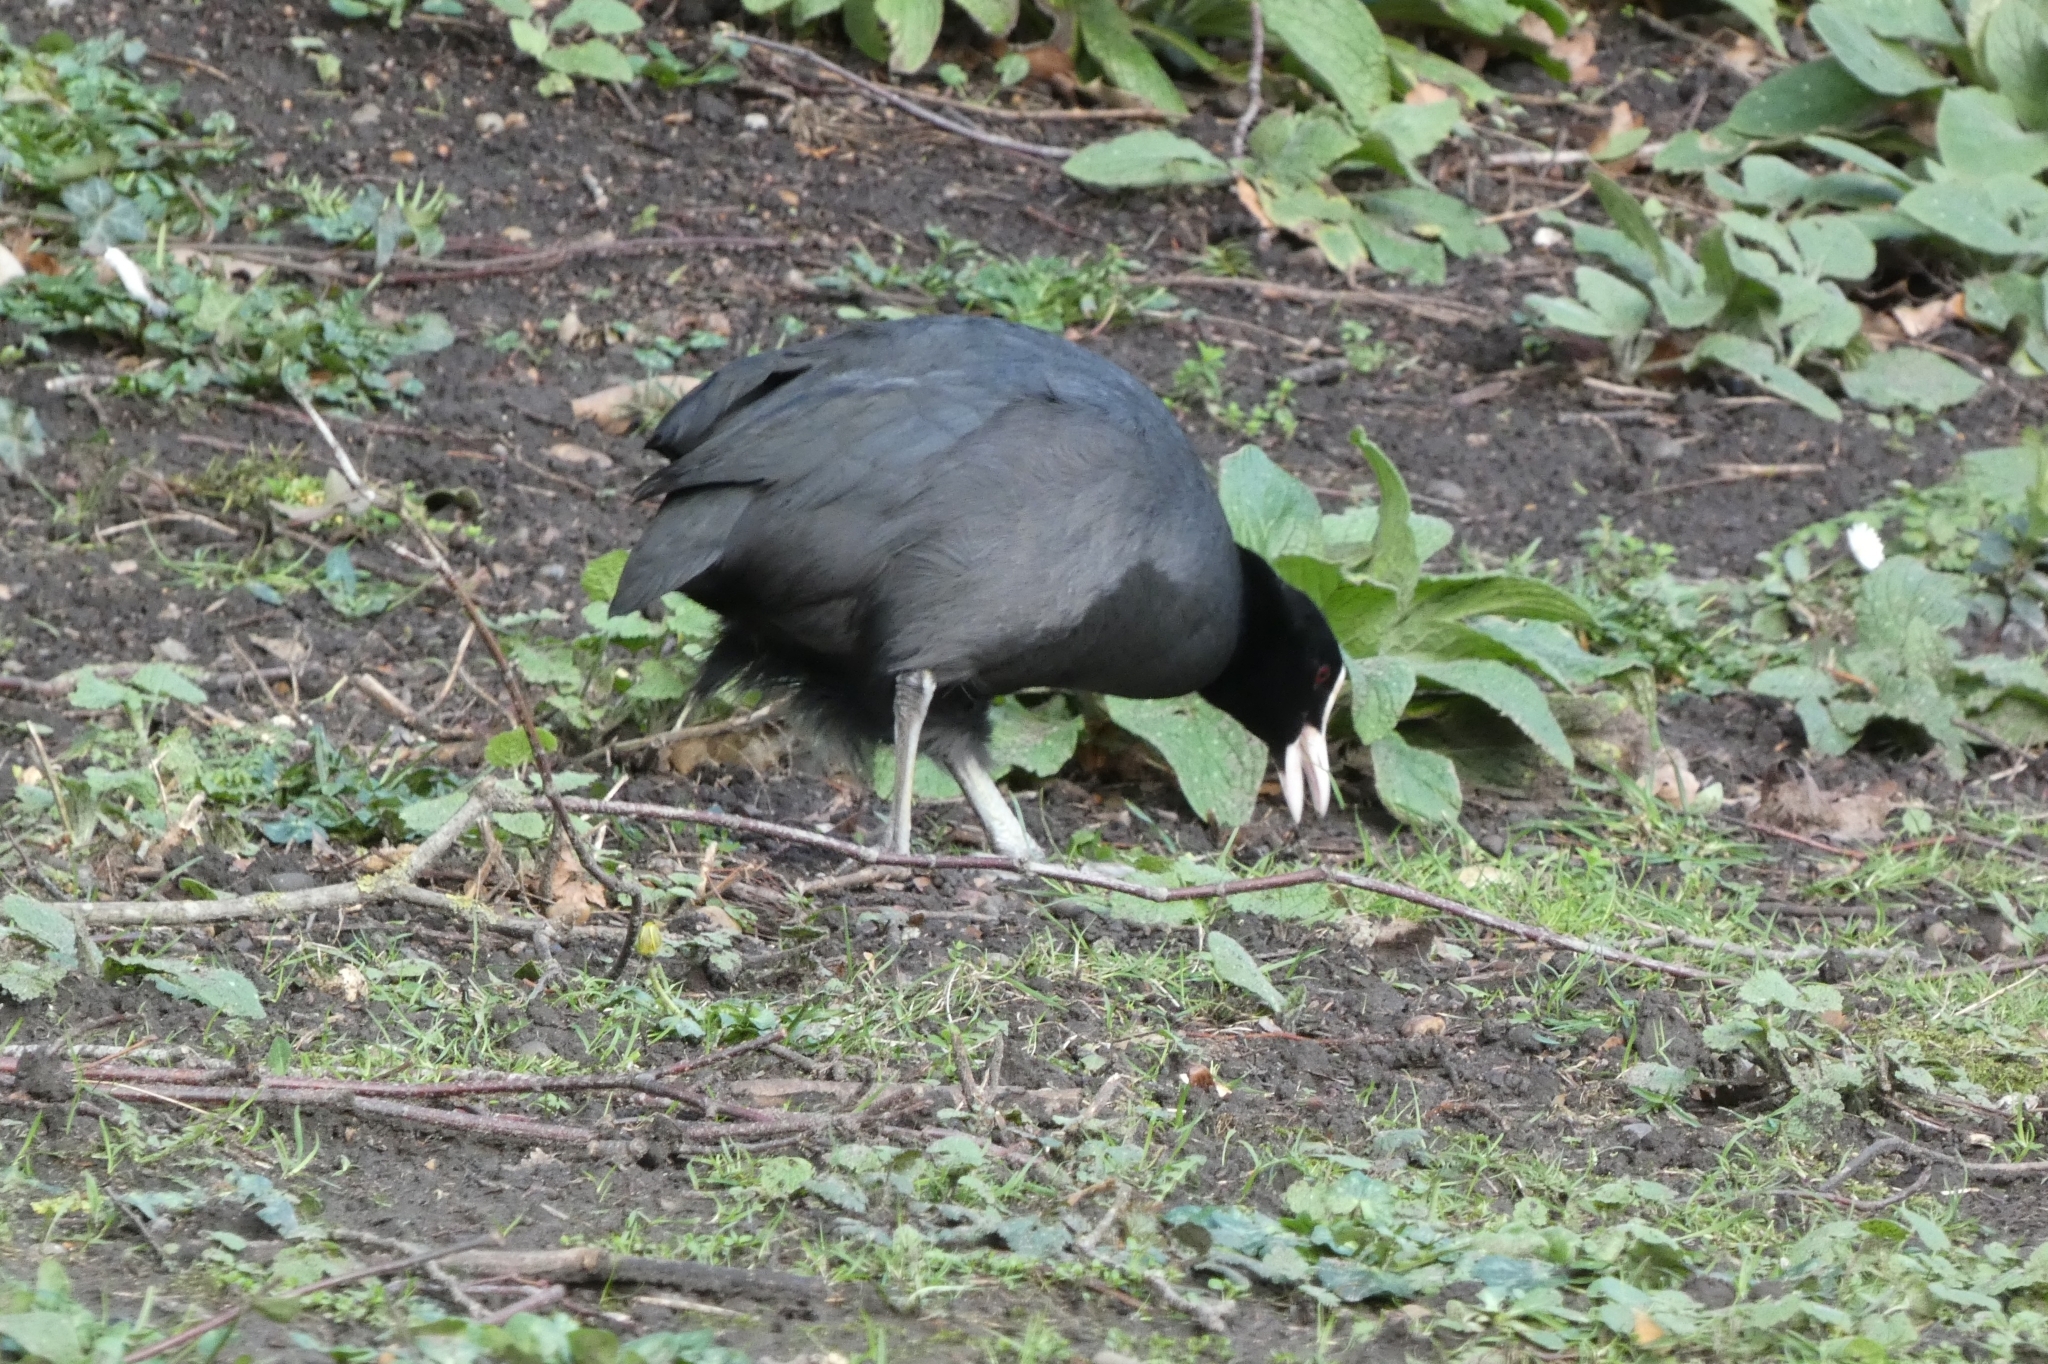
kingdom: Animalia
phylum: Chordata
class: Aves
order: Gruiformes
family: Rallidae
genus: Fulica
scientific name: Fulica atra
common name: Eurasian coot
